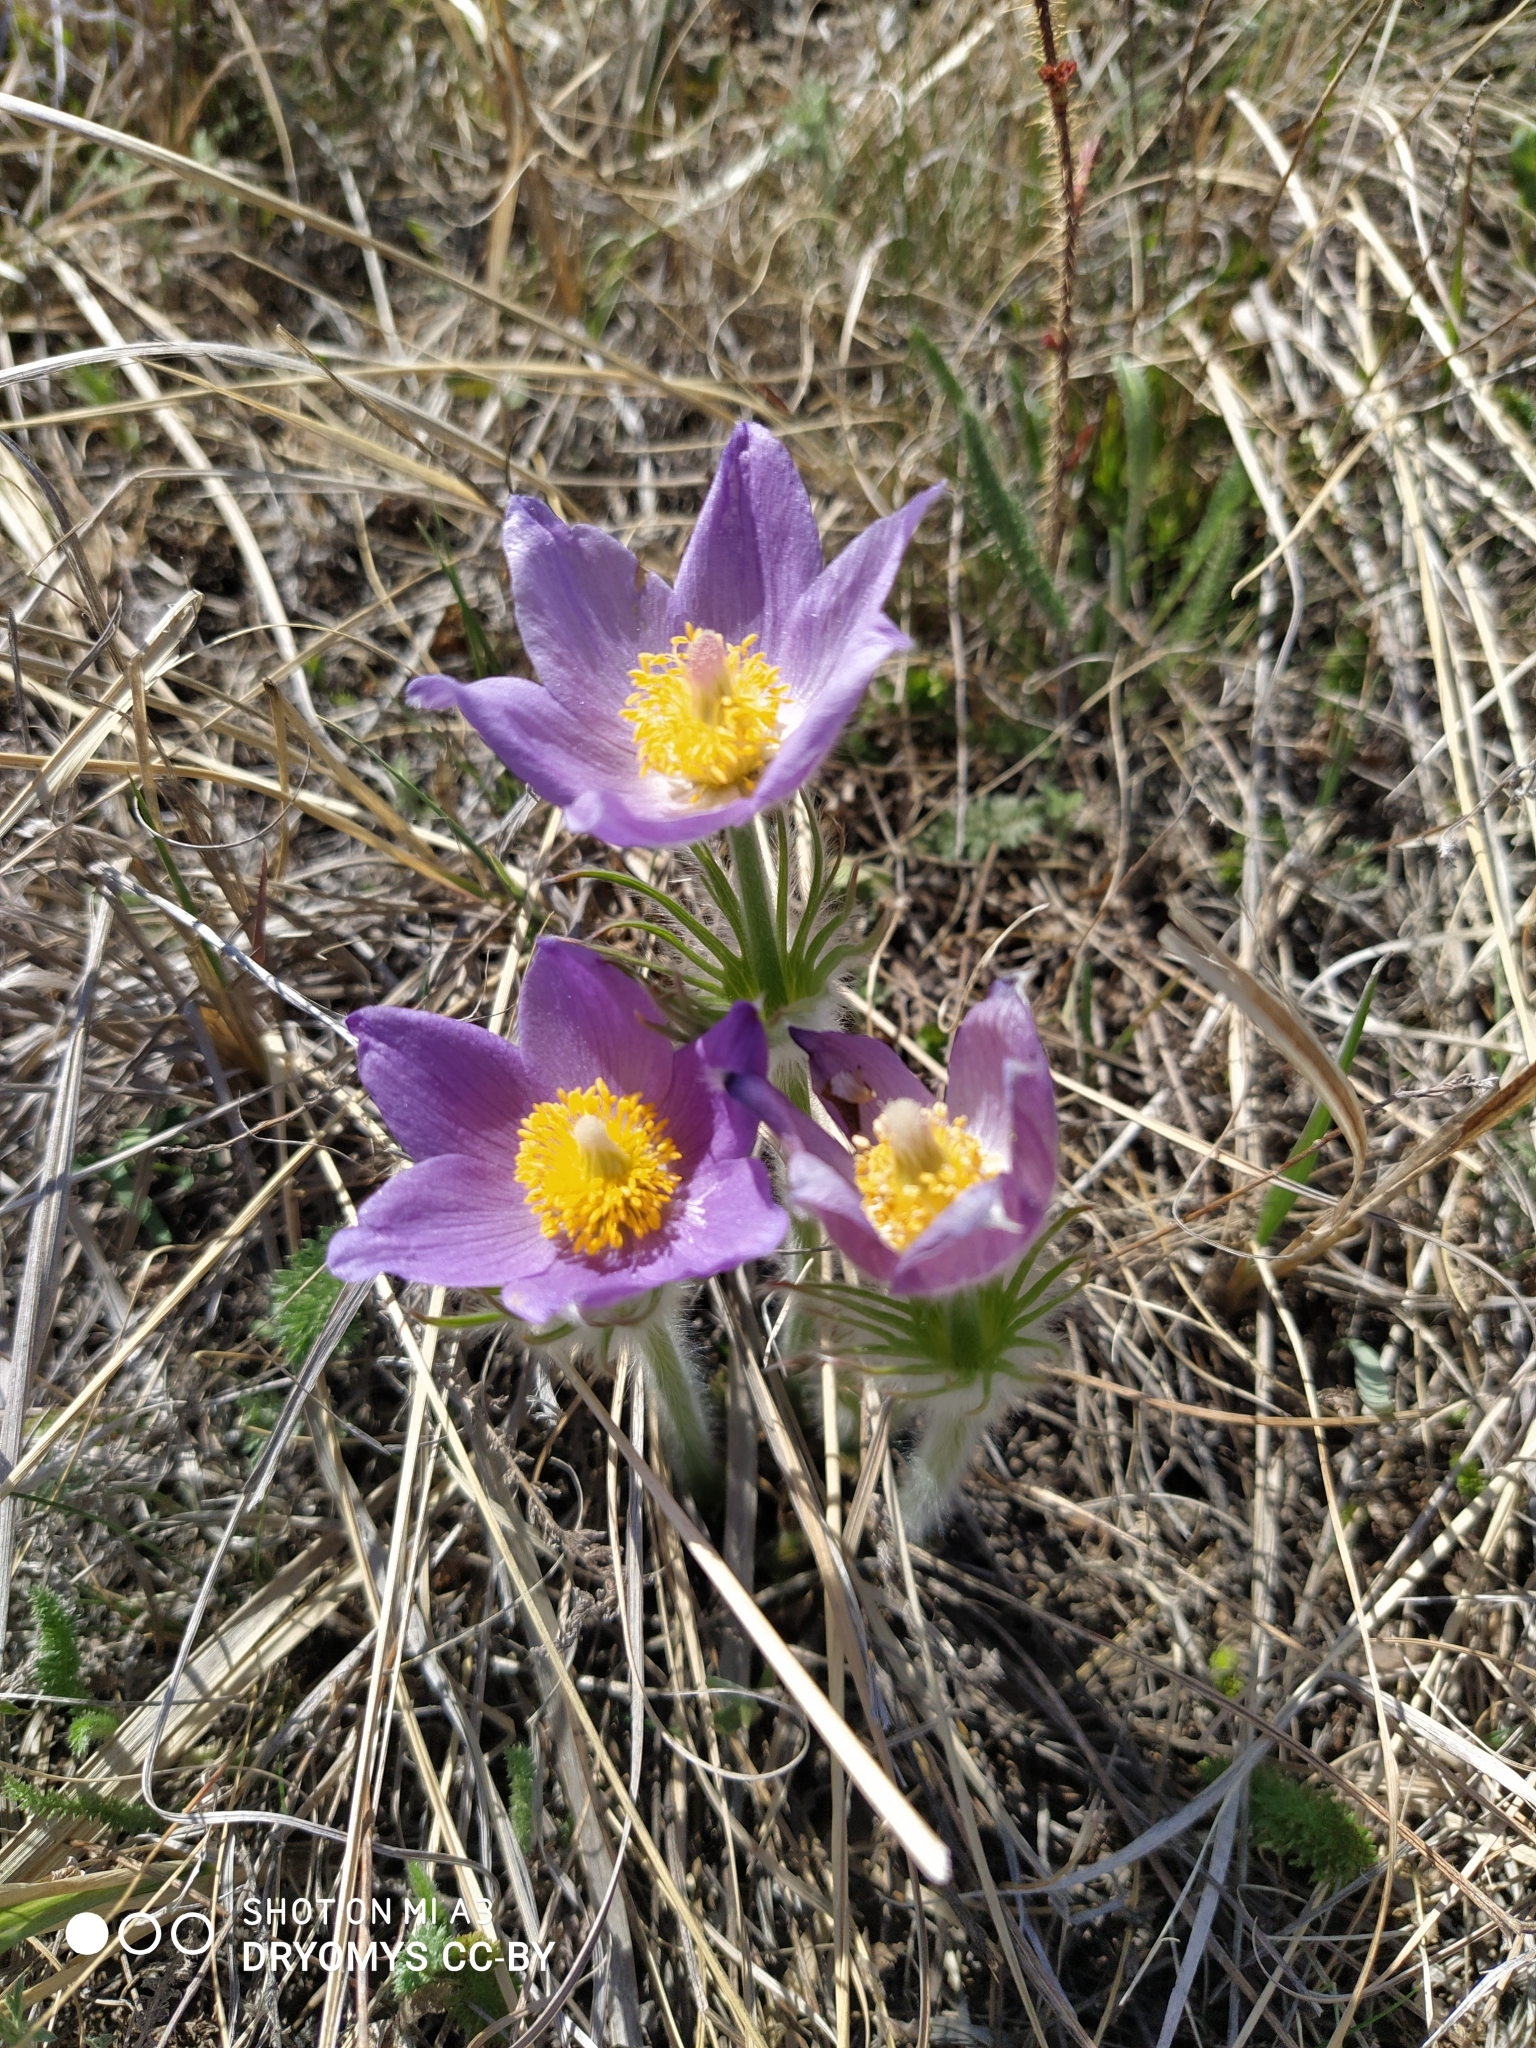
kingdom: Plantae
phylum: Tracheophyta
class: Magnoliopsida
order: Ranunculales
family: Ranunculaceae
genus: Pulsatilla
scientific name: Pulsatilla patens
